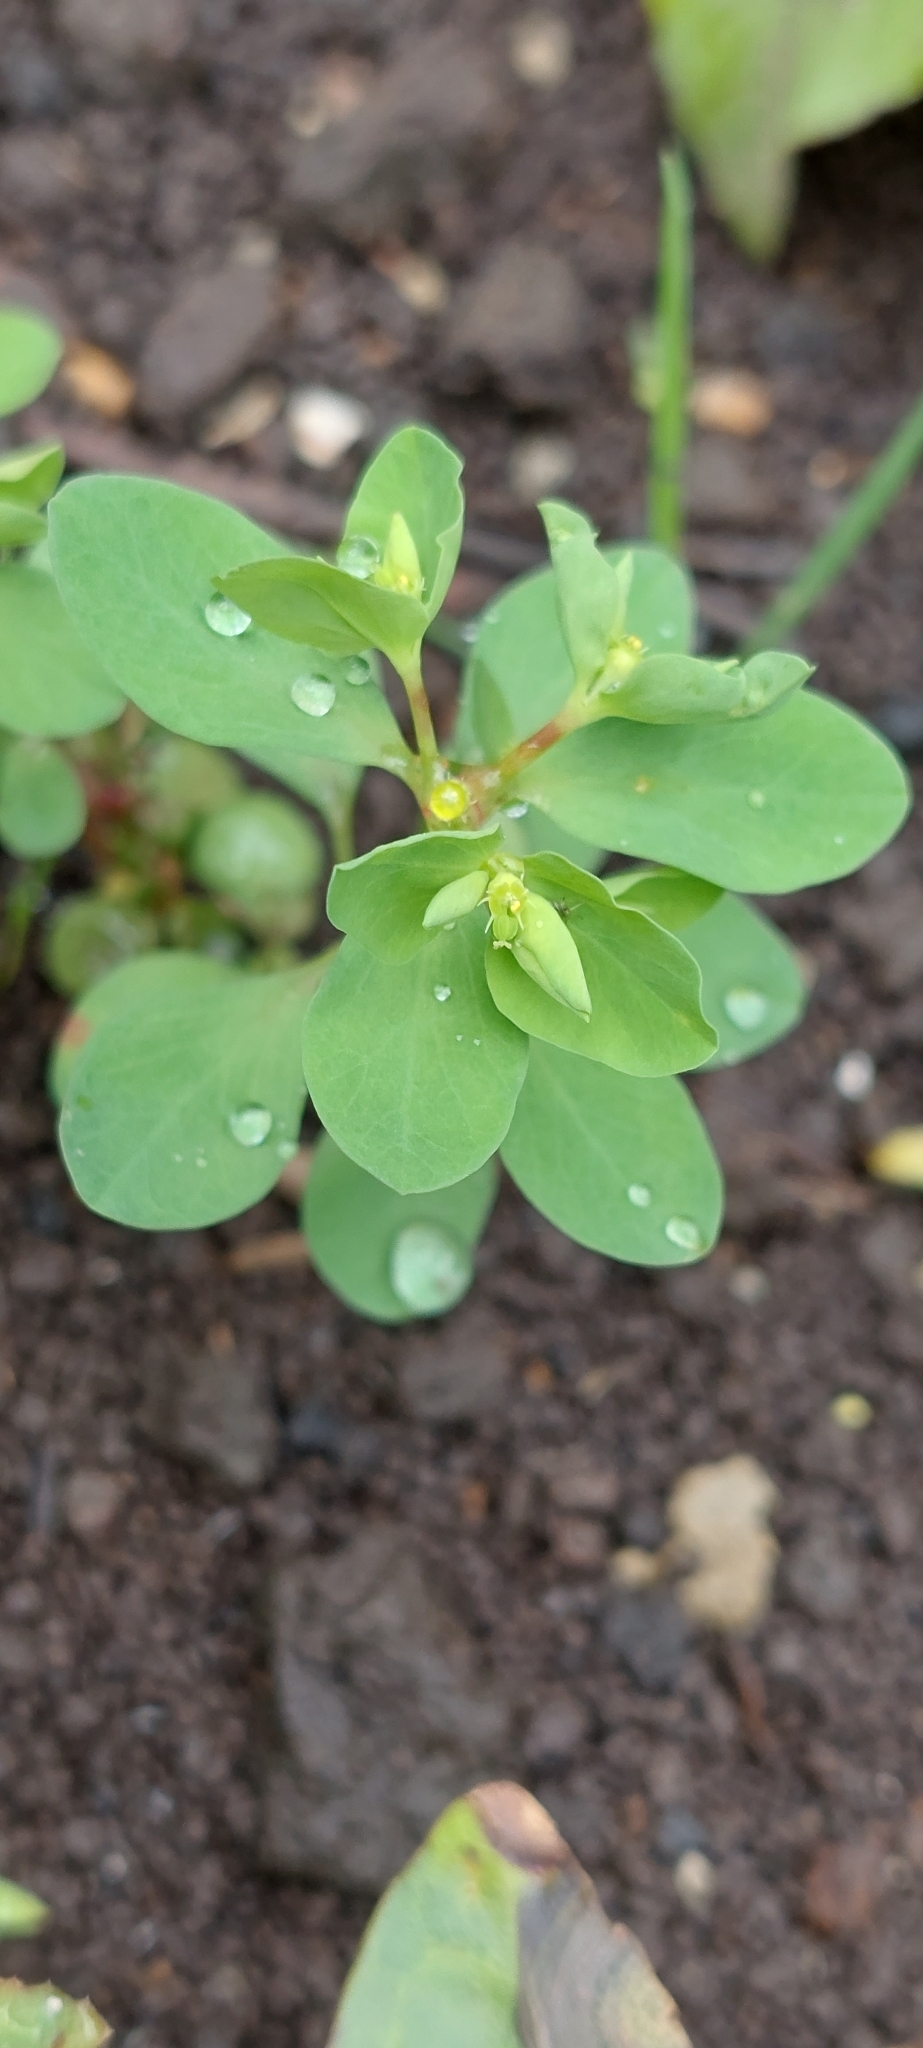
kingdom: Plantae
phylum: Tracheophyta
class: Magnoliopsida
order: Malpighiales
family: Euphorbiaceae
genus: Euphorbia
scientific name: Euphorbia peplus
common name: Petty spurge
